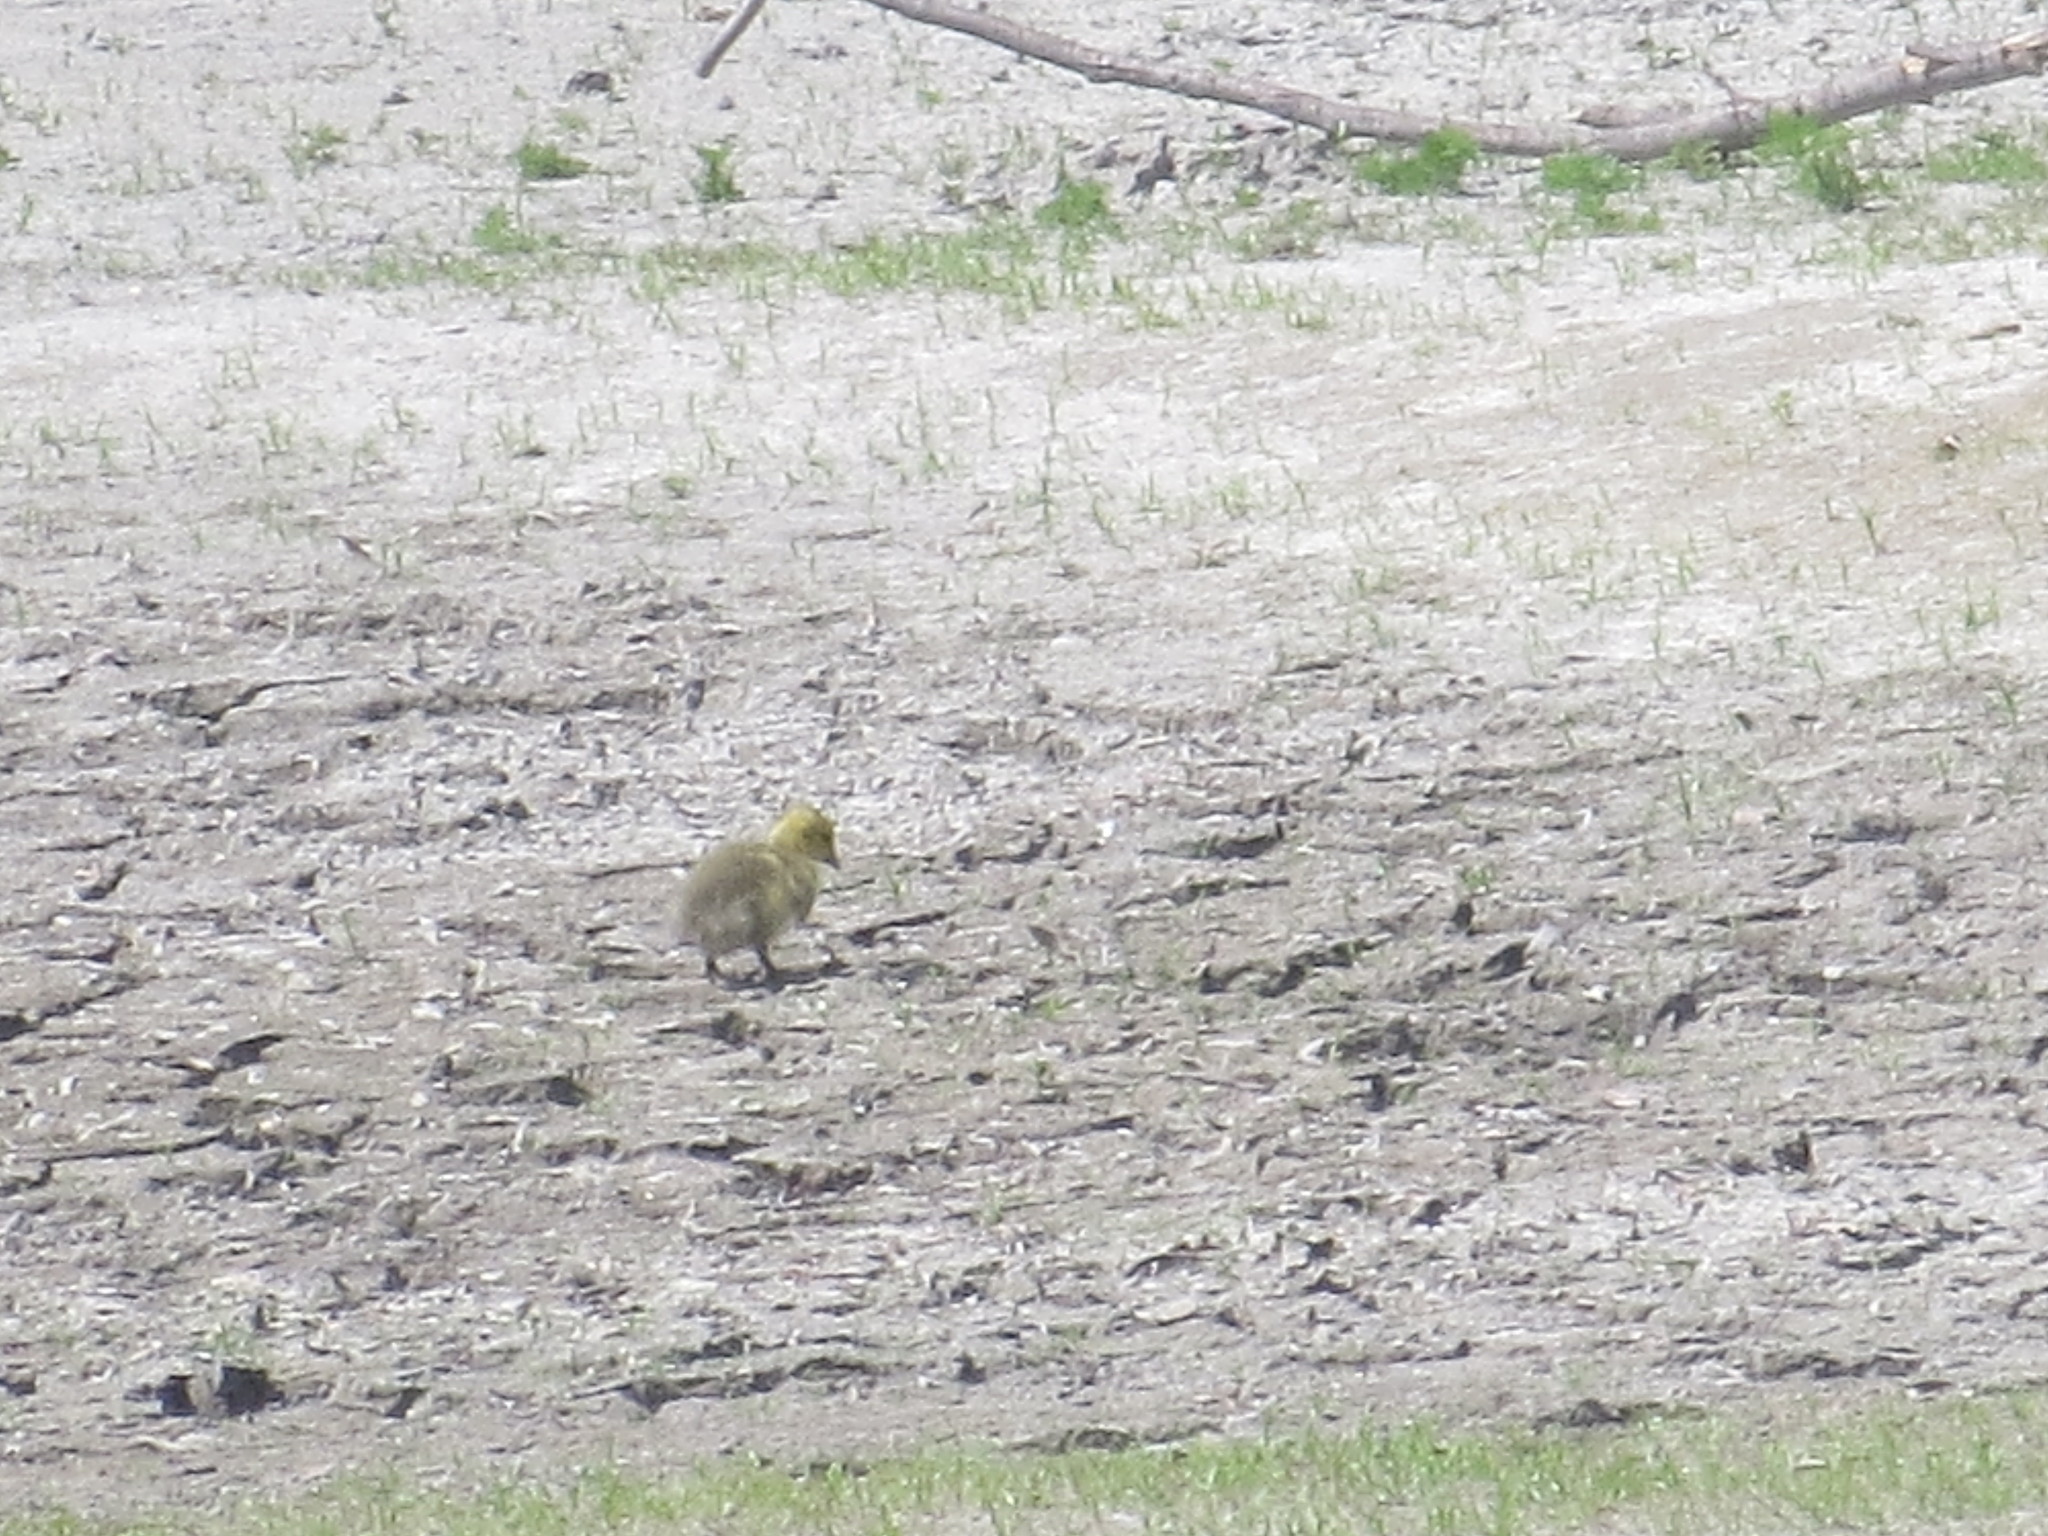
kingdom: Animalia
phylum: Chordata
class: Aves
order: Anseriformes
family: Anatidae
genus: Branta
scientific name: Branta canadensis
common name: Canada goose
